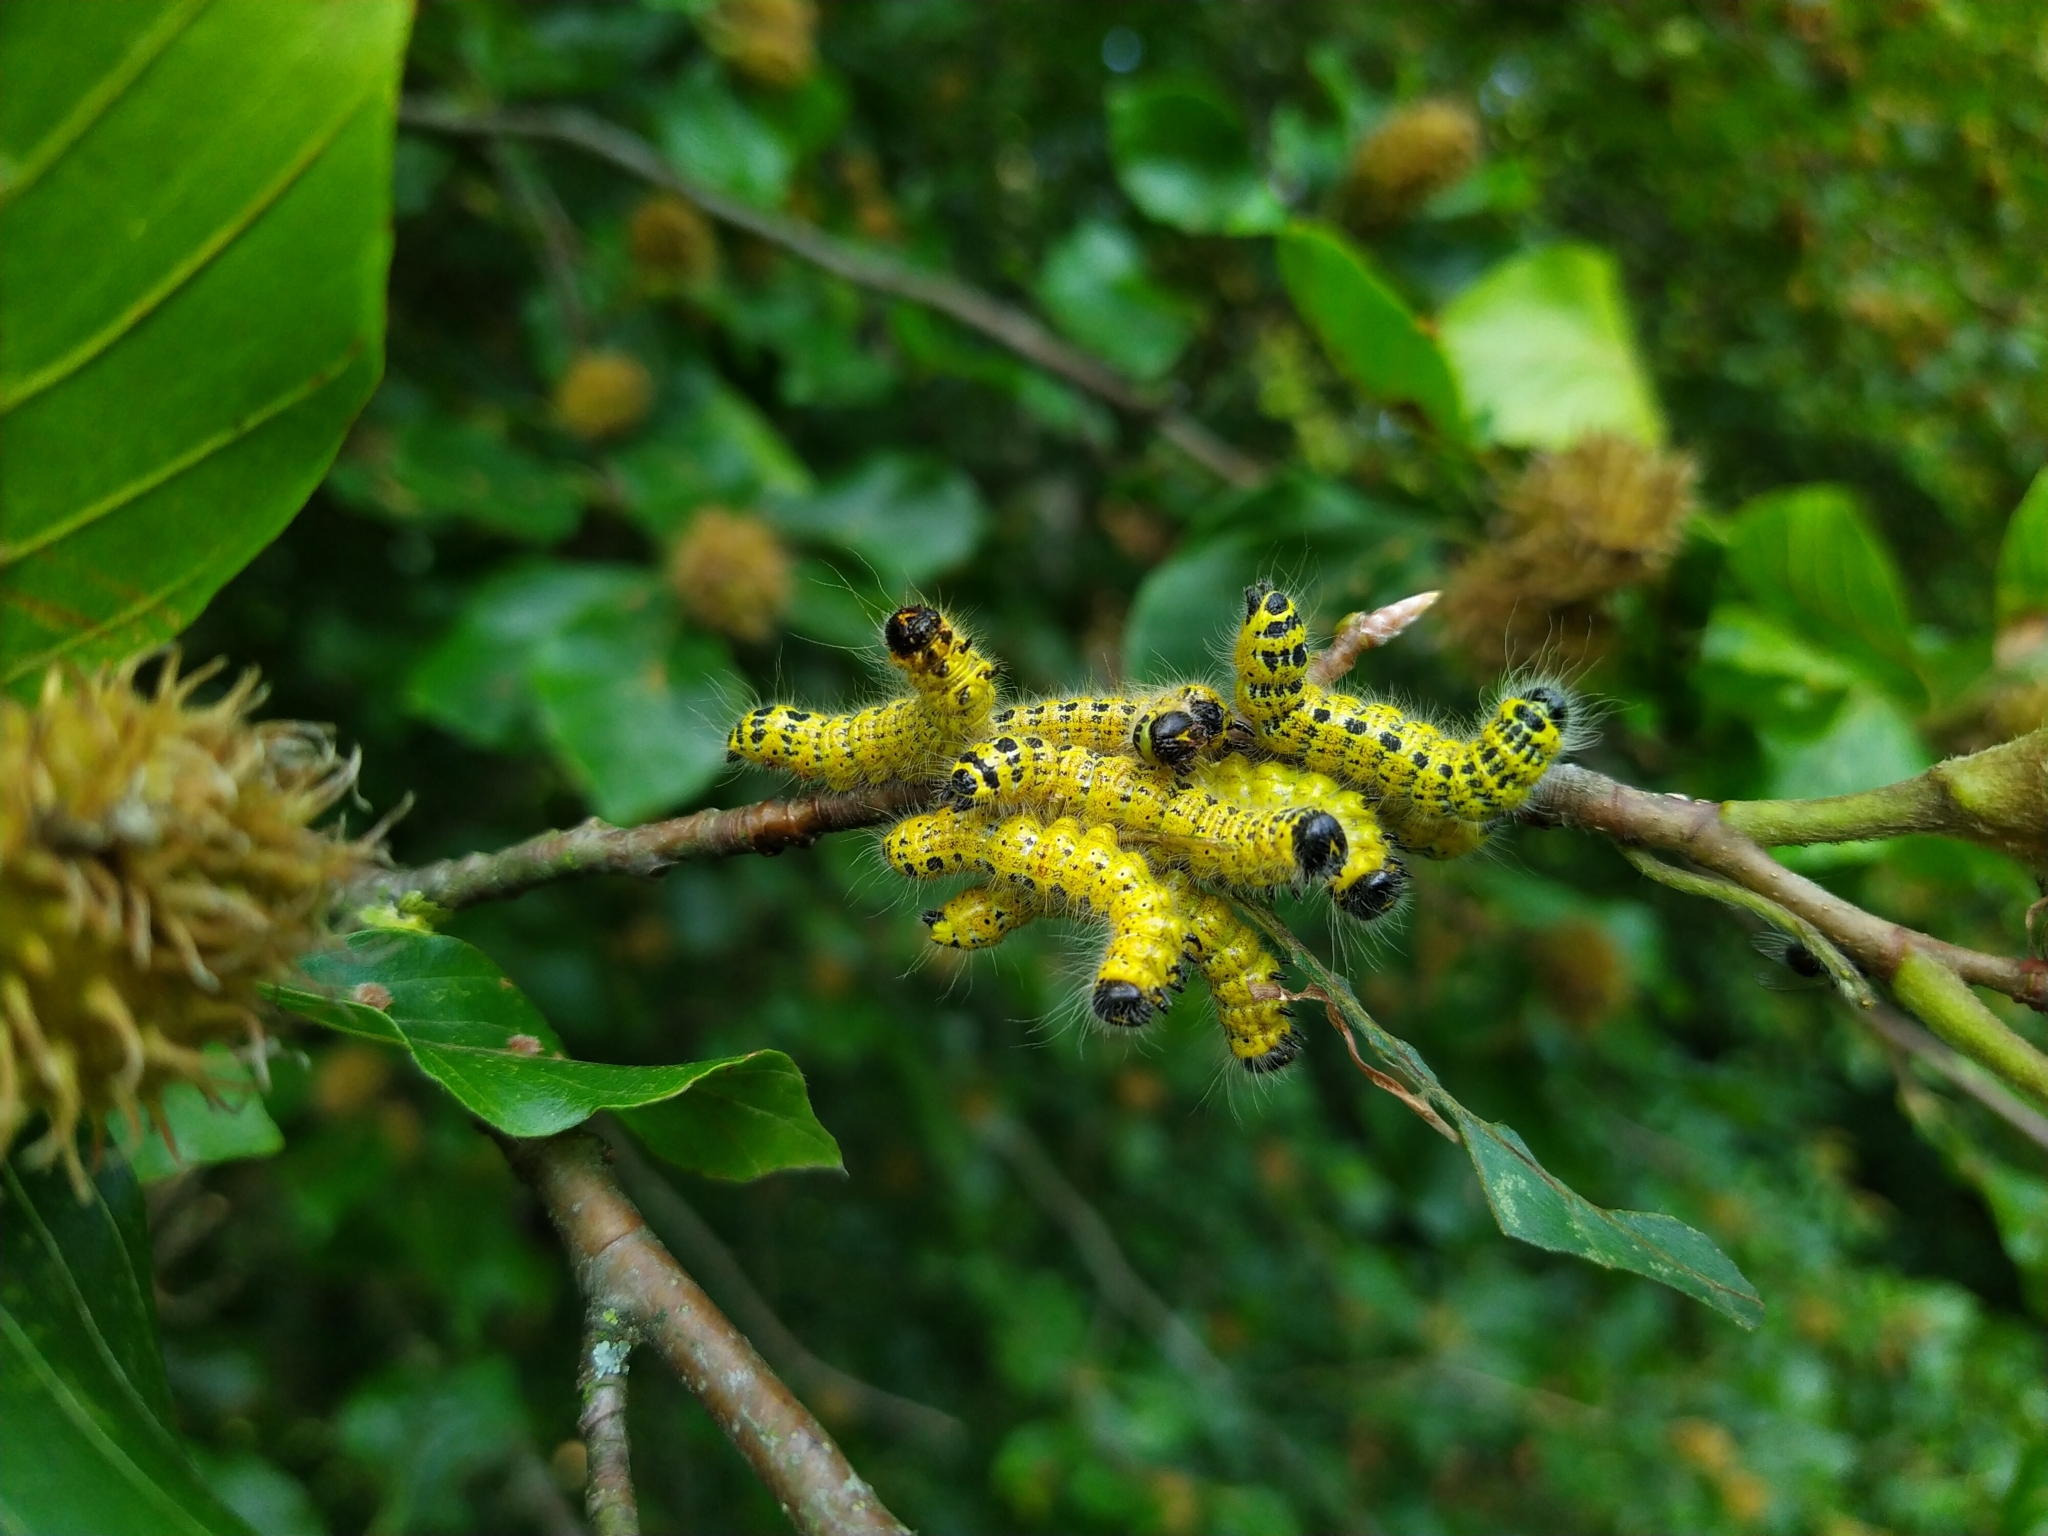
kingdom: Animalia
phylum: Arthropoda
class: Insecta
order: Lepidoptera
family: Notodontidae
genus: Phalera
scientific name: Phalera bucephala
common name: Buff-tip
